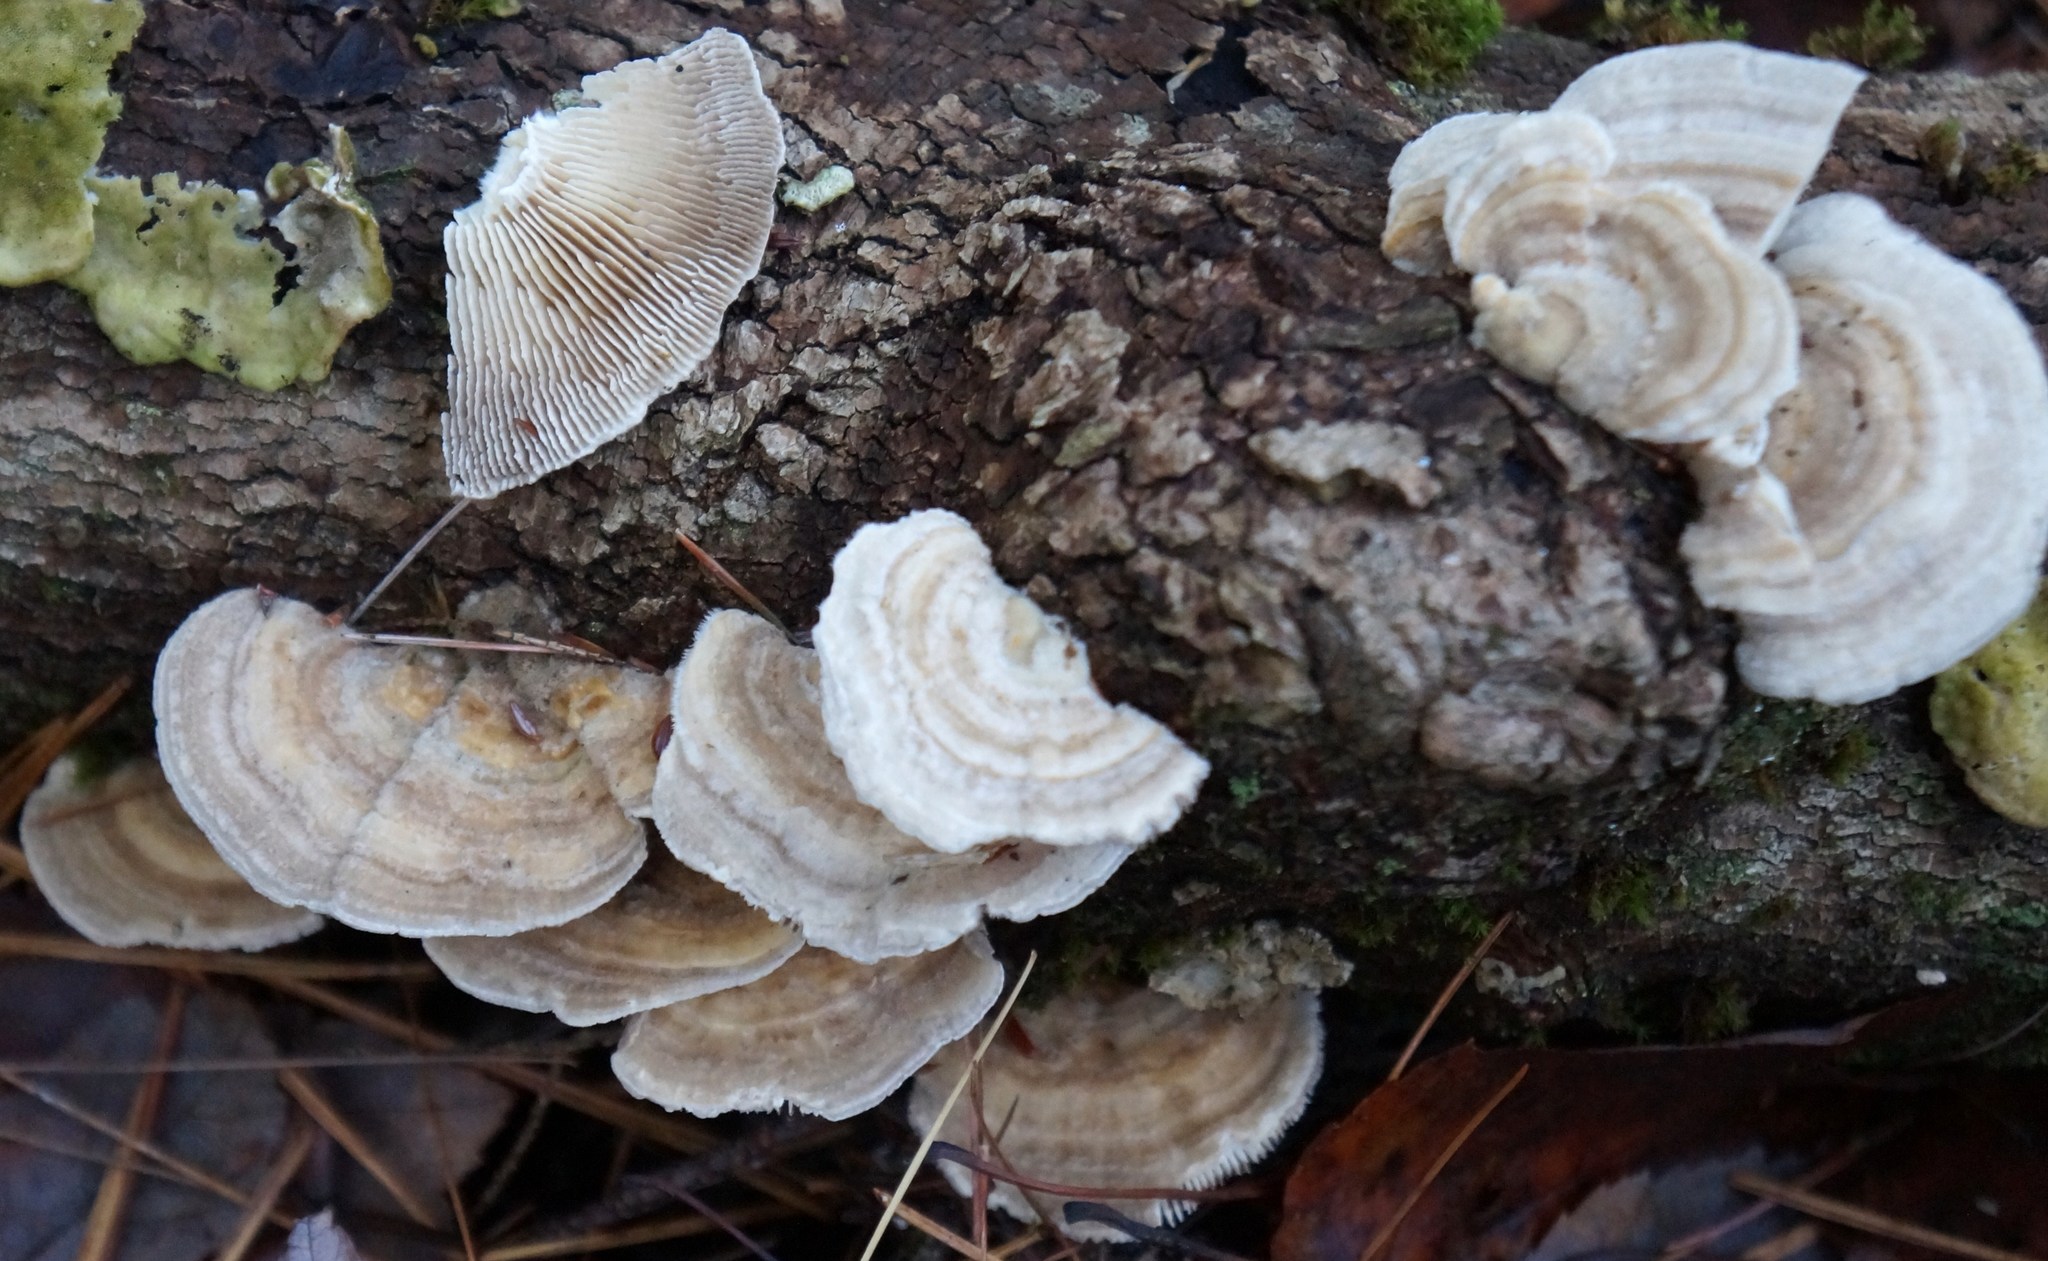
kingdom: Fungi
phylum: Basidiomycota
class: Agaricomycetes
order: Polyporales
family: Polyporaceae
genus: Lenzites
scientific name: Lenzites betulinus
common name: Birch mazegill
